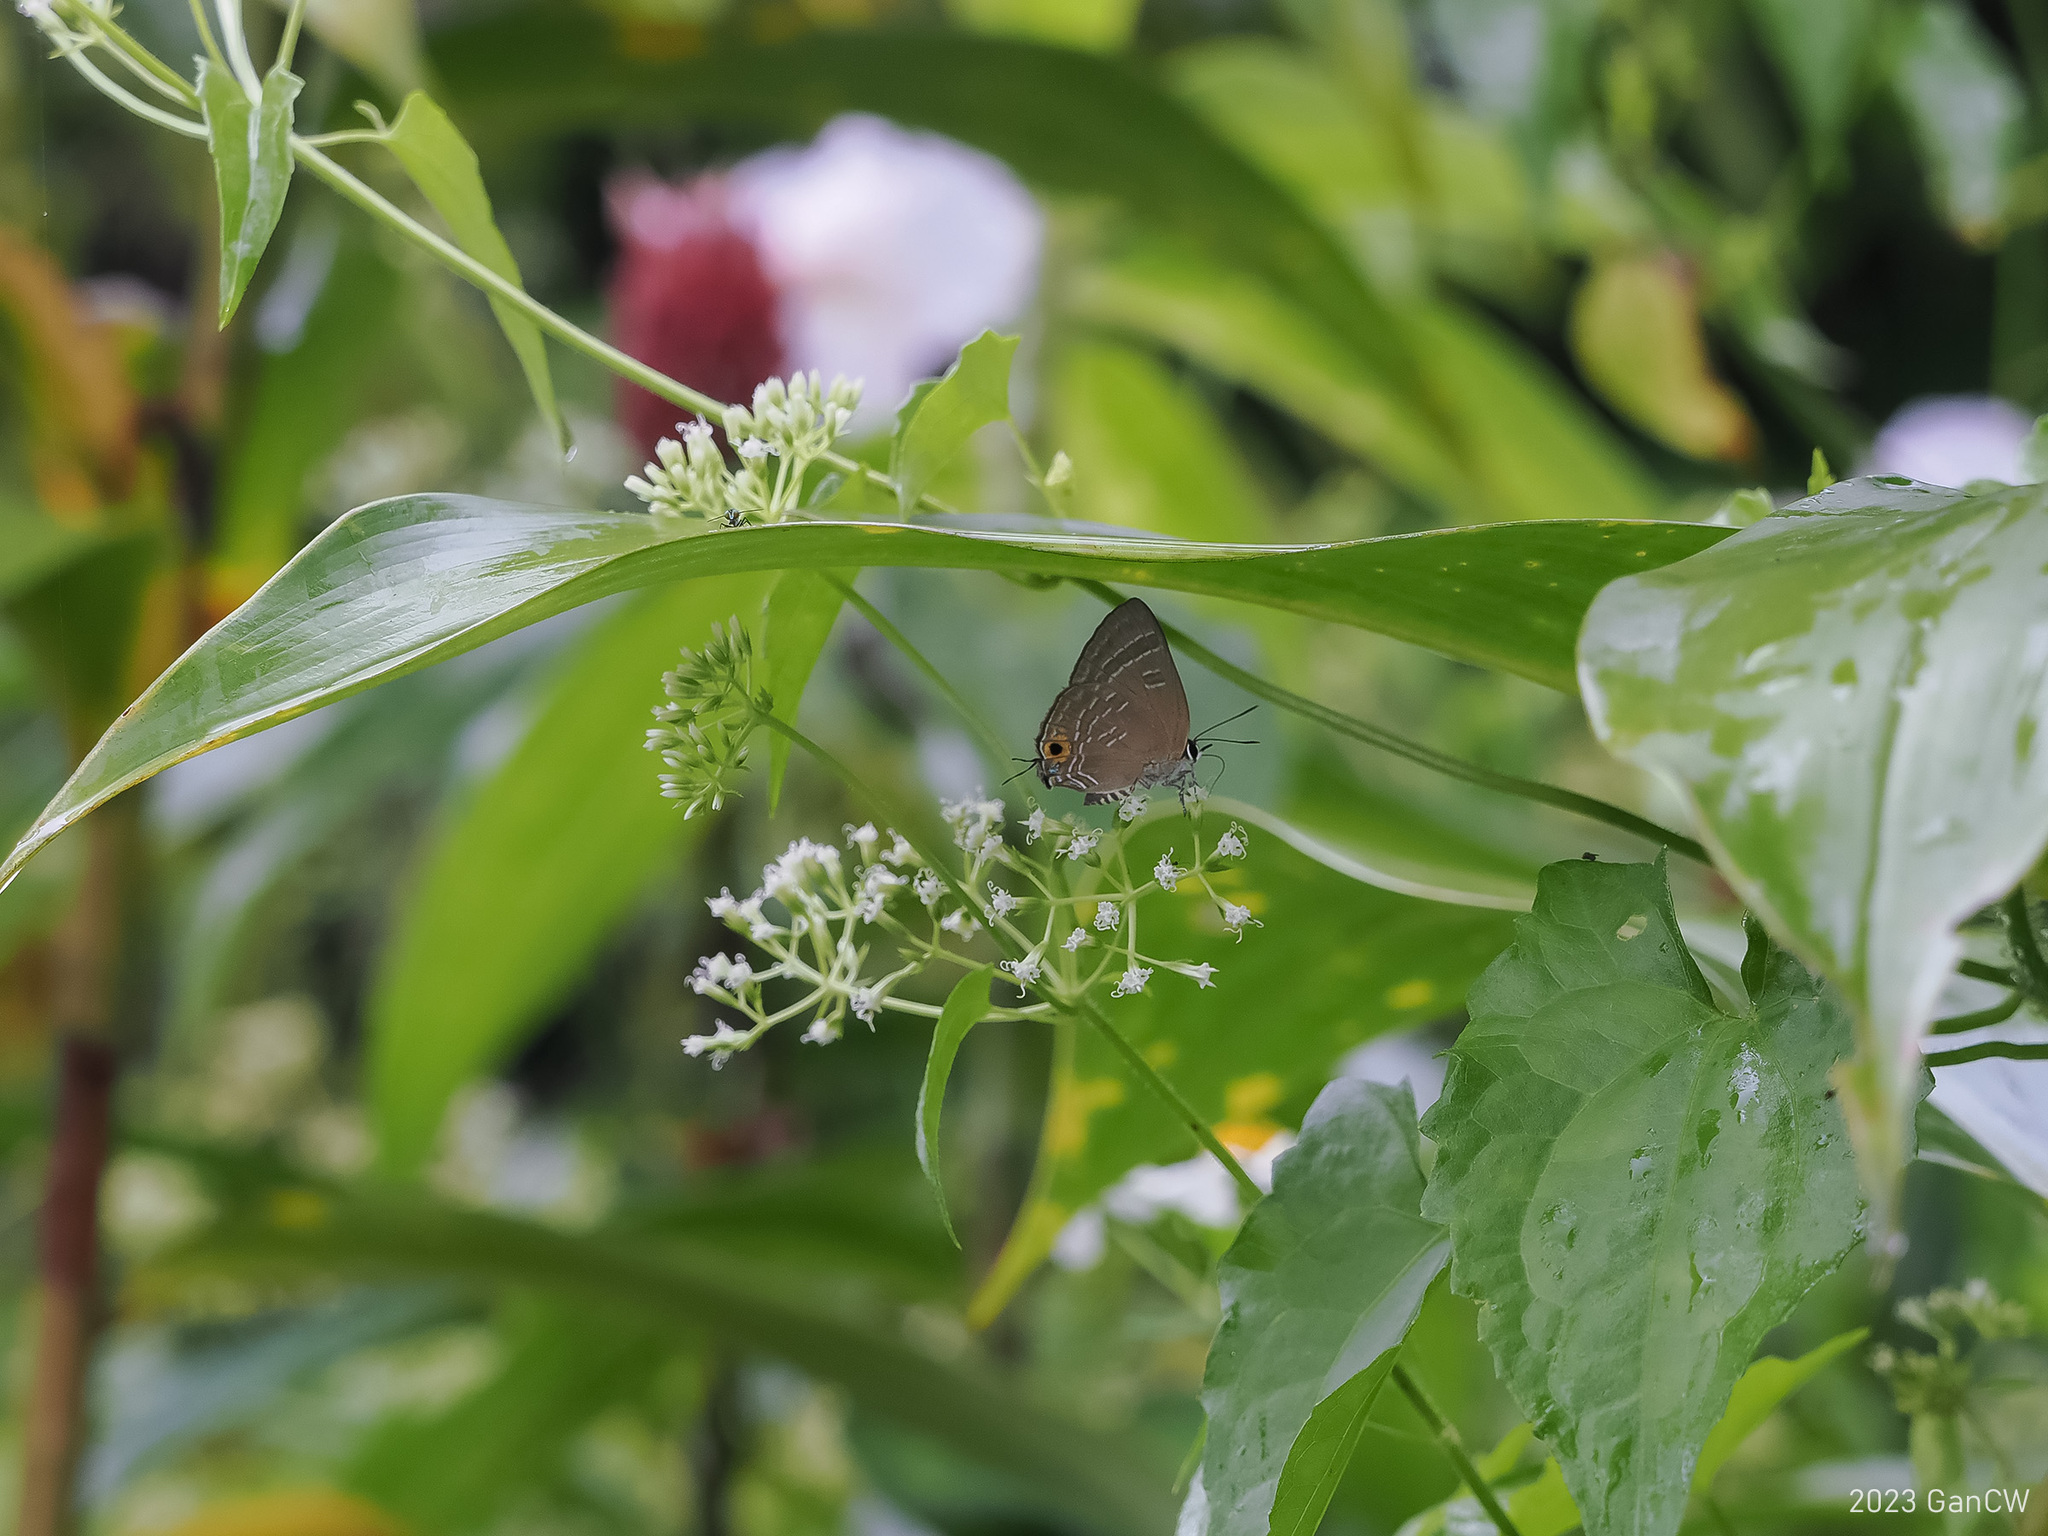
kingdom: Animalia
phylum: Arthropoda
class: Insecta
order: Lepidoptera
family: Lycaenidae
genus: Deudorix
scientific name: Deudorix epijarbas
